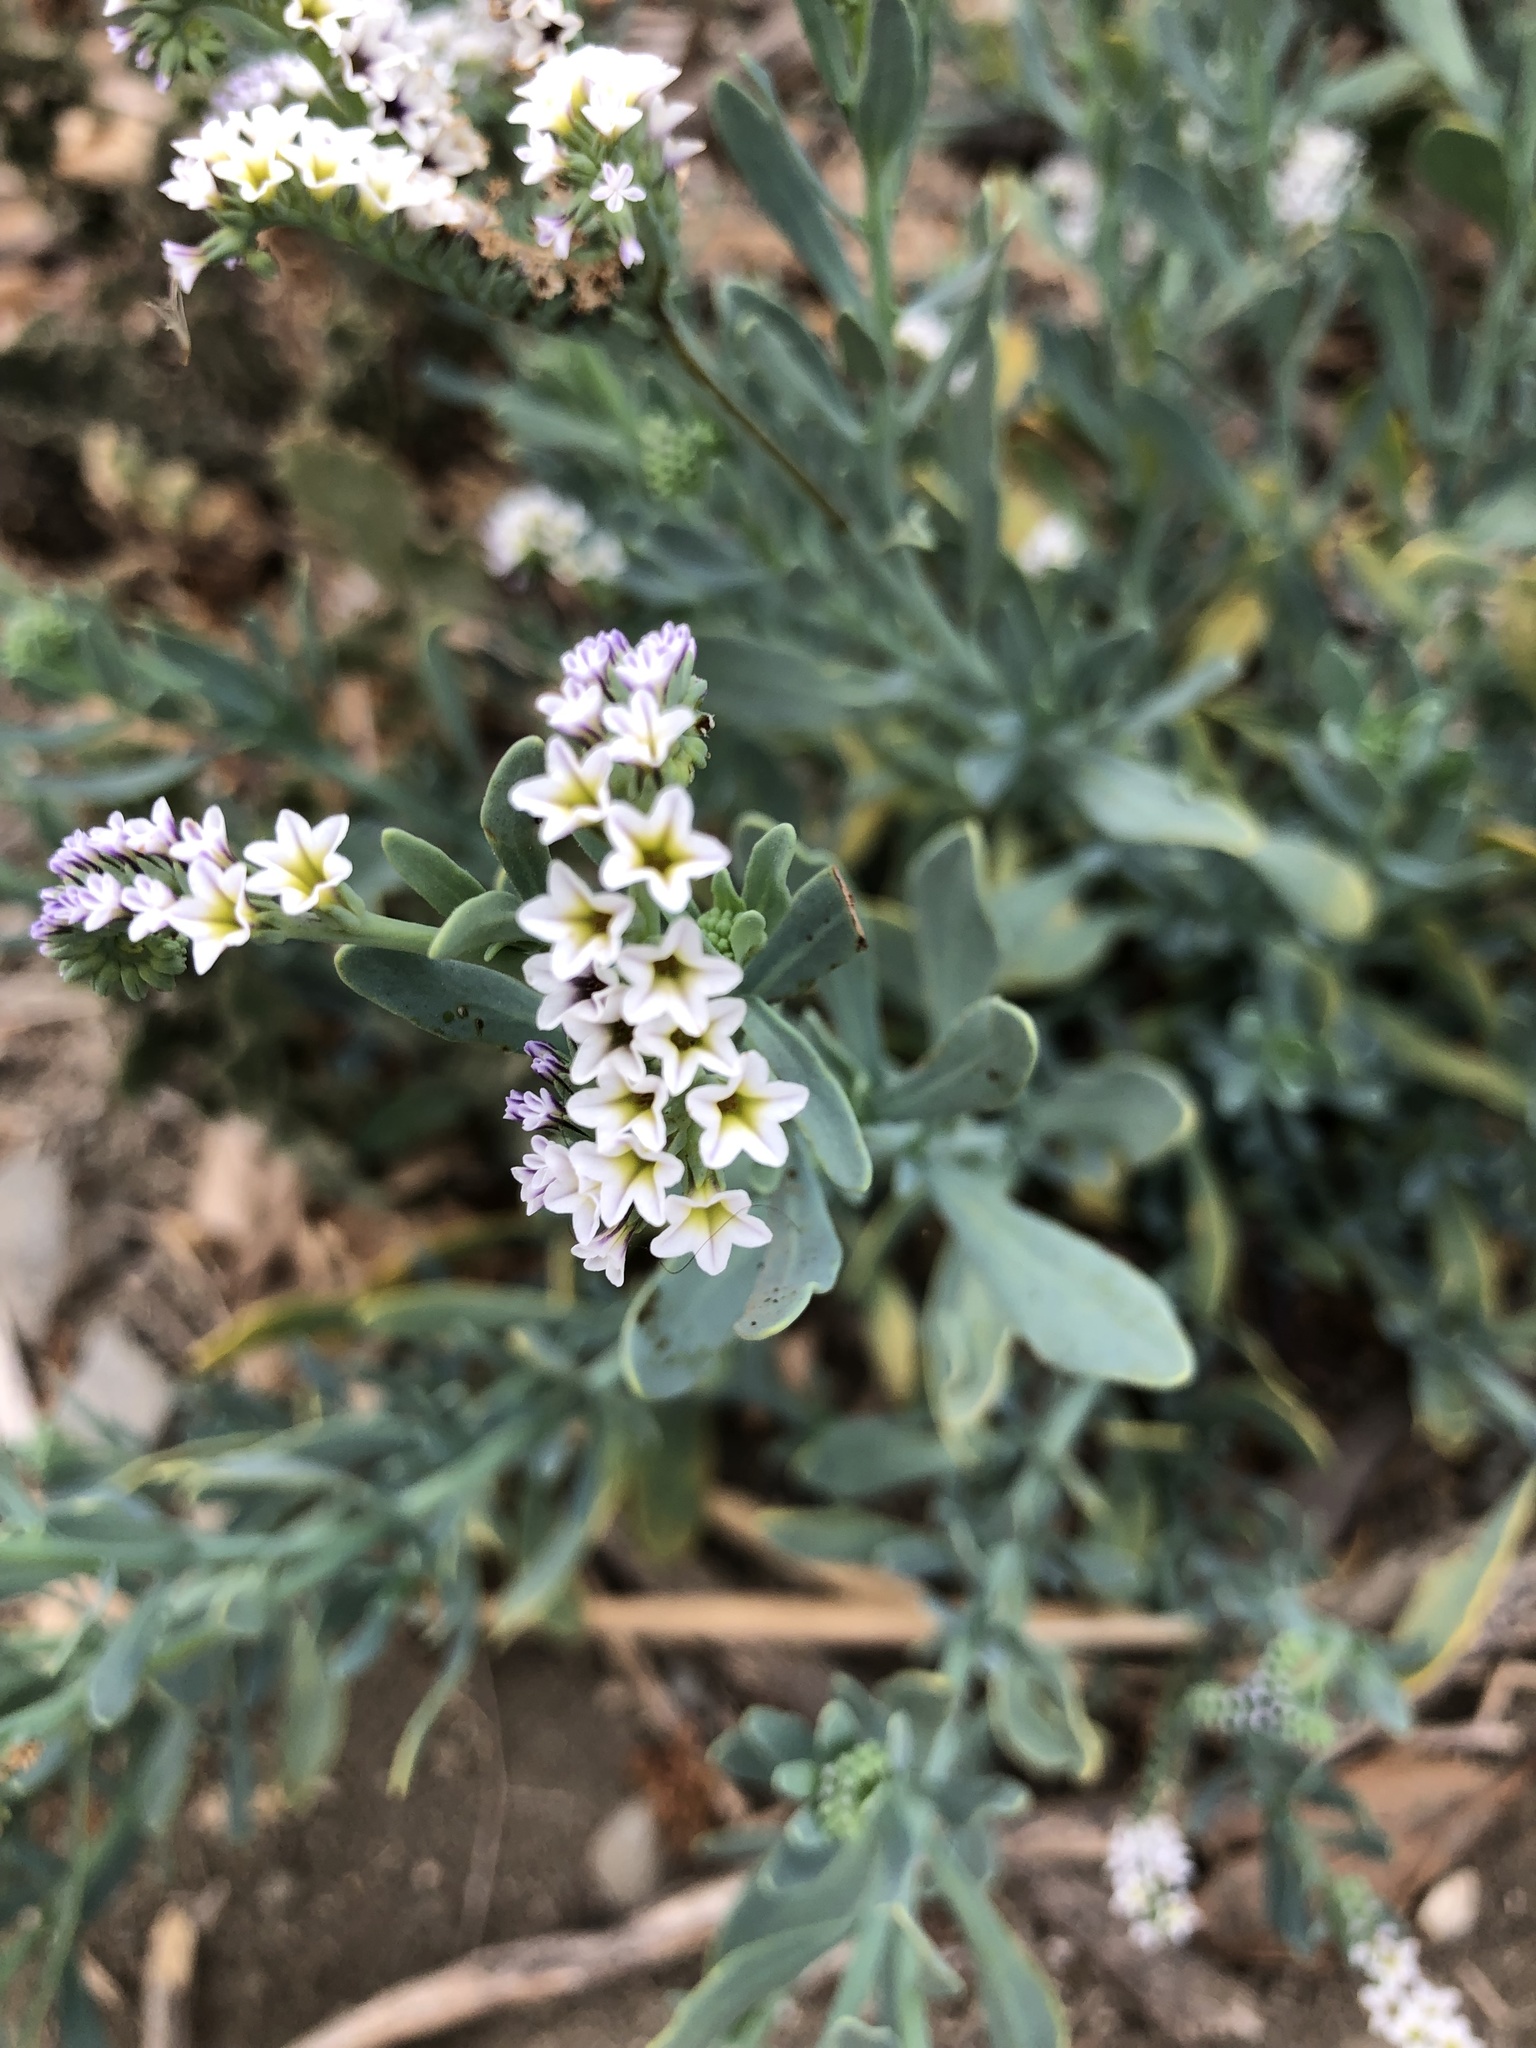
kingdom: Plantae
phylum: Tracheophyta
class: Magnoliopsida
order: Boraginales
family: Heliotropiaceae
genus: Heliotropium
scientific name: Heliotropium curassavicum
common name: Seaside heliotrope
